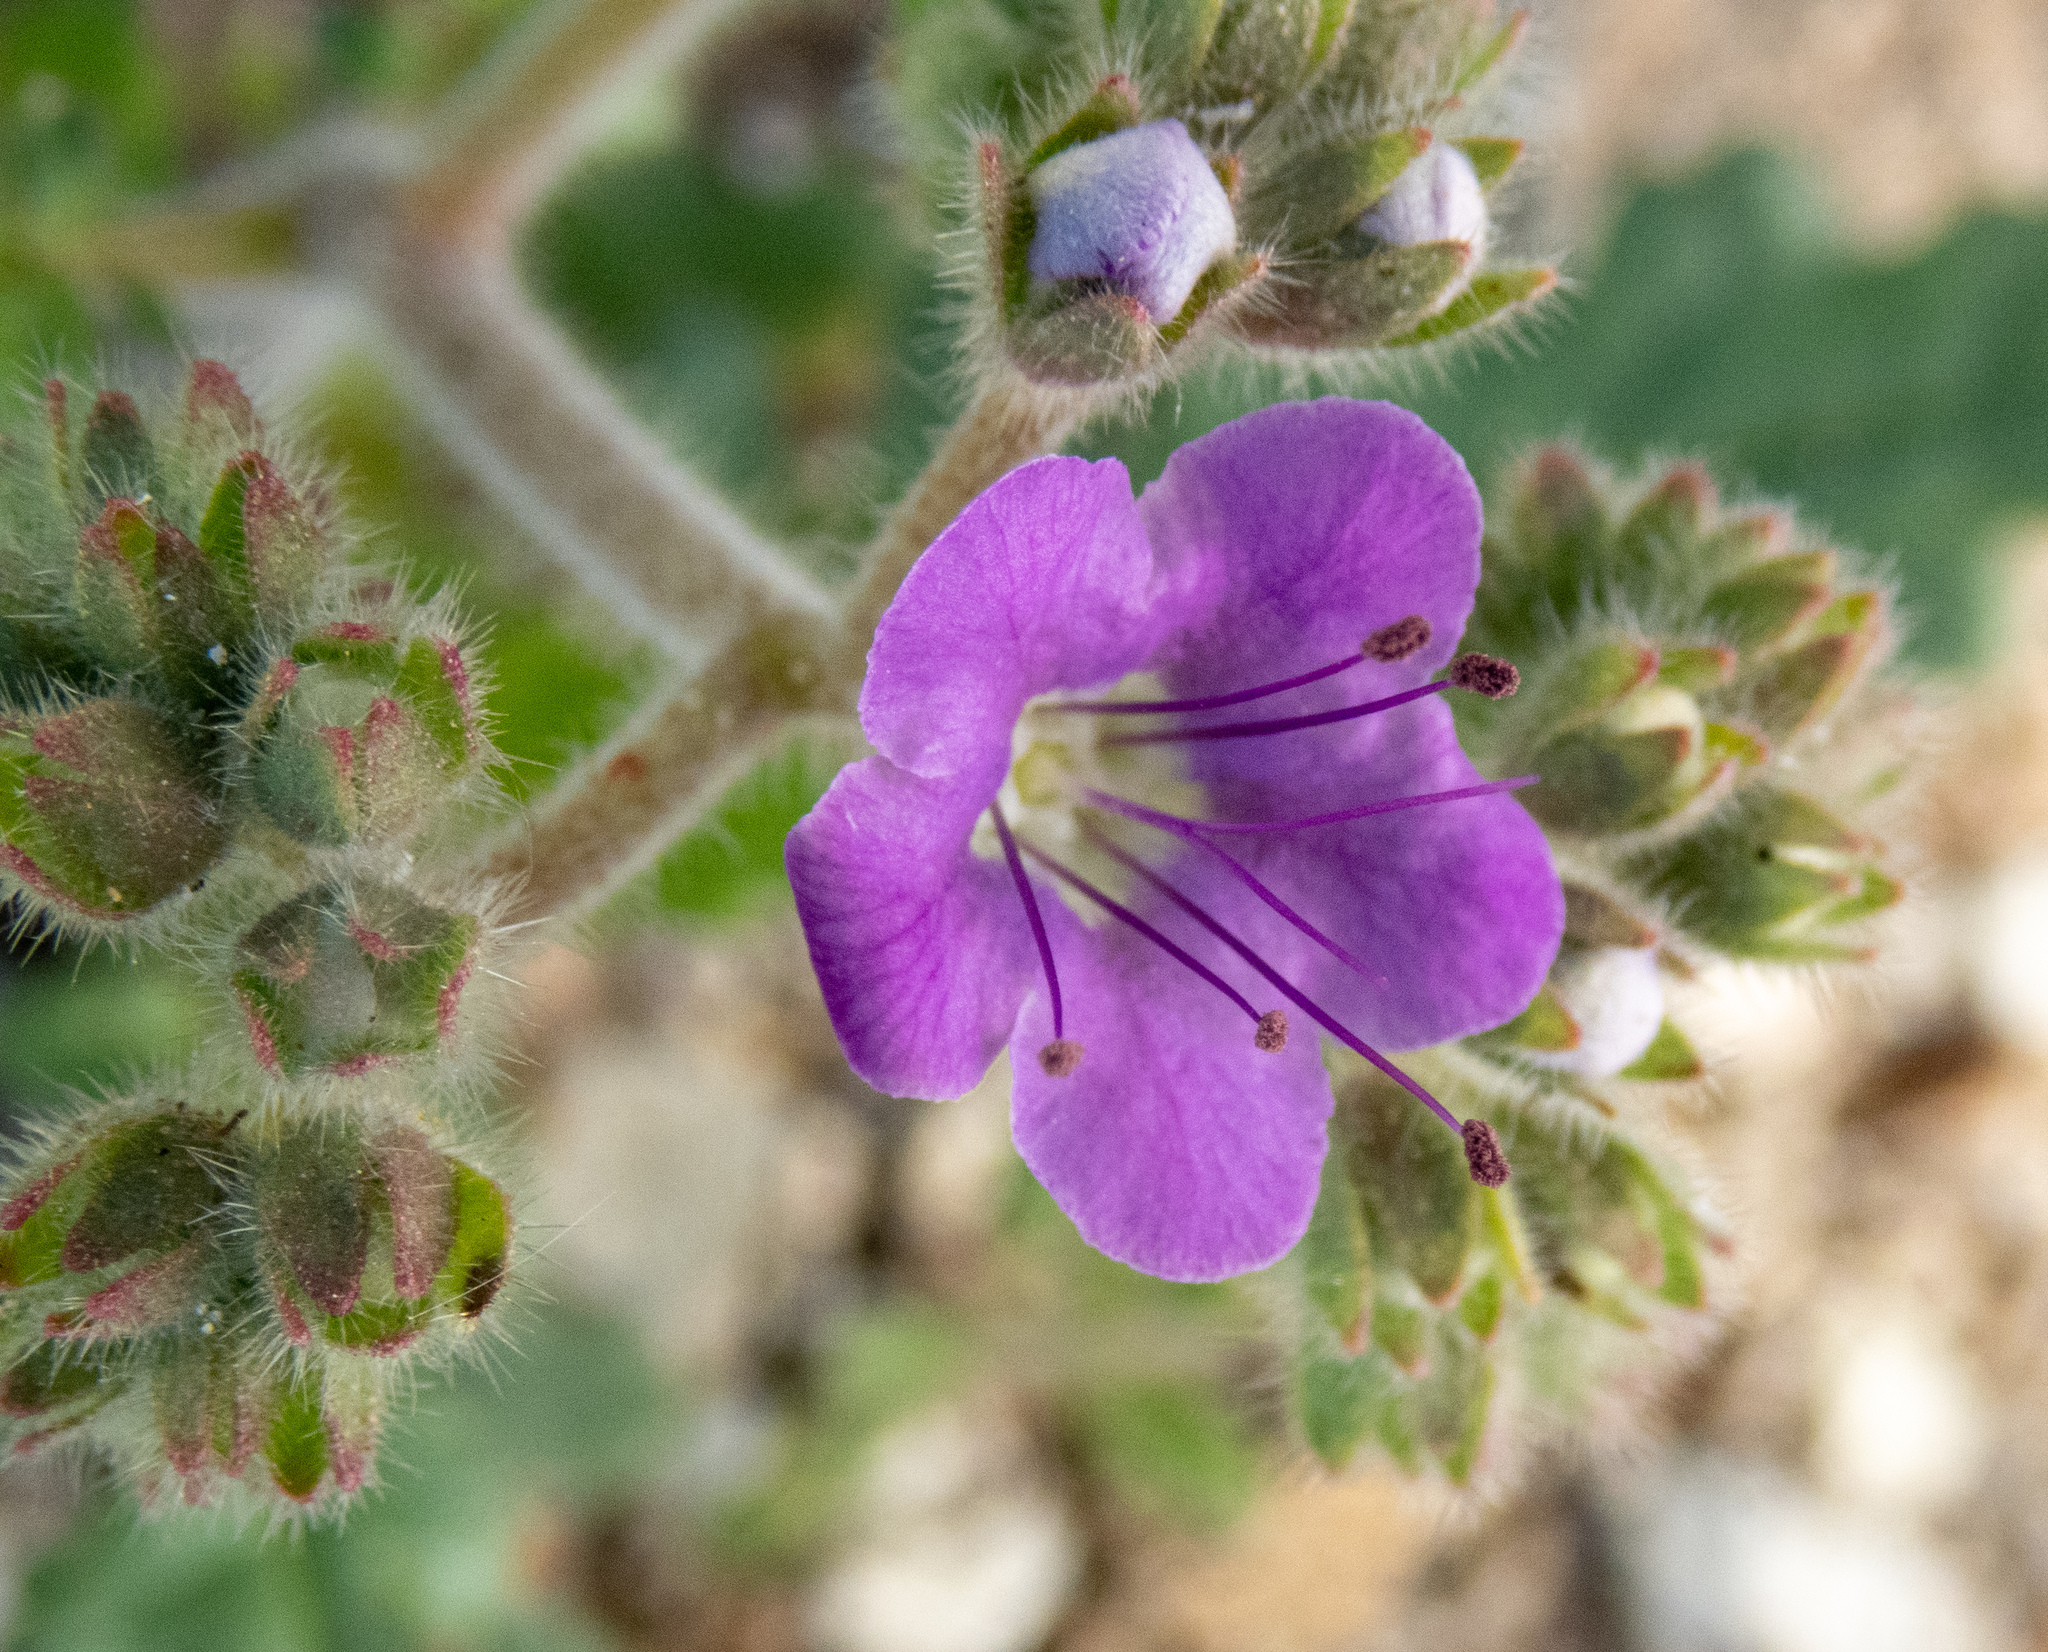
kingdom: Plantae
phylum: Tracheophyta
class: Magnoliopsida
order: Boraginales
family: Hydrophyllaceae
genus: Phacelia
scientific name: Phacelia crenulata
